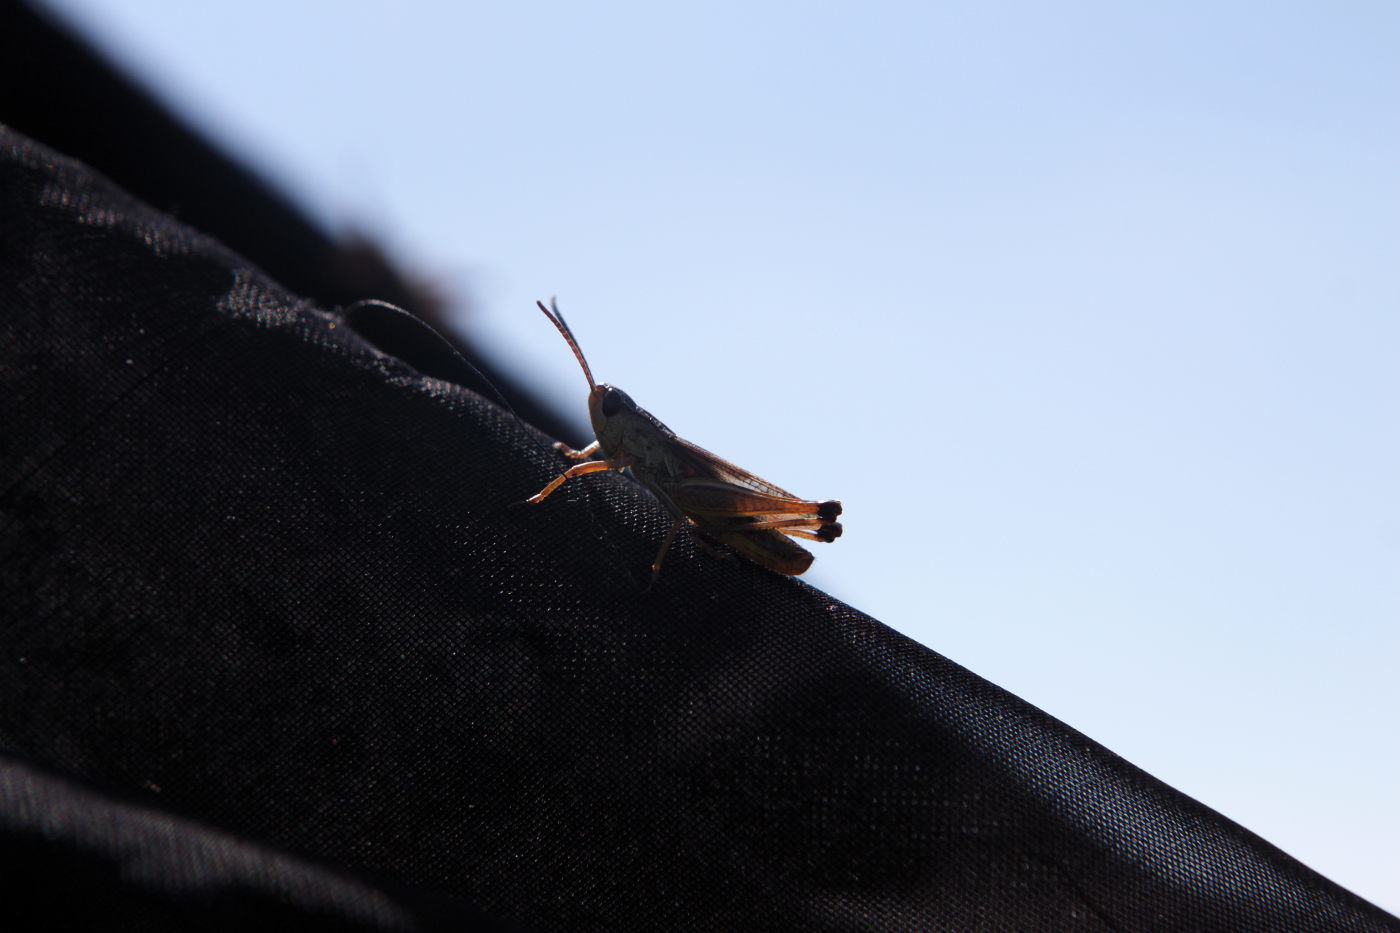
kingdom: Animalia
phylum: Arthropoda
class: Insecta
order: Orthoptera
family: Acrididae
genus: Pseudochorthippus
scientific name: Pseudochorthippus parallelus
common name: Meadow grasshopper
